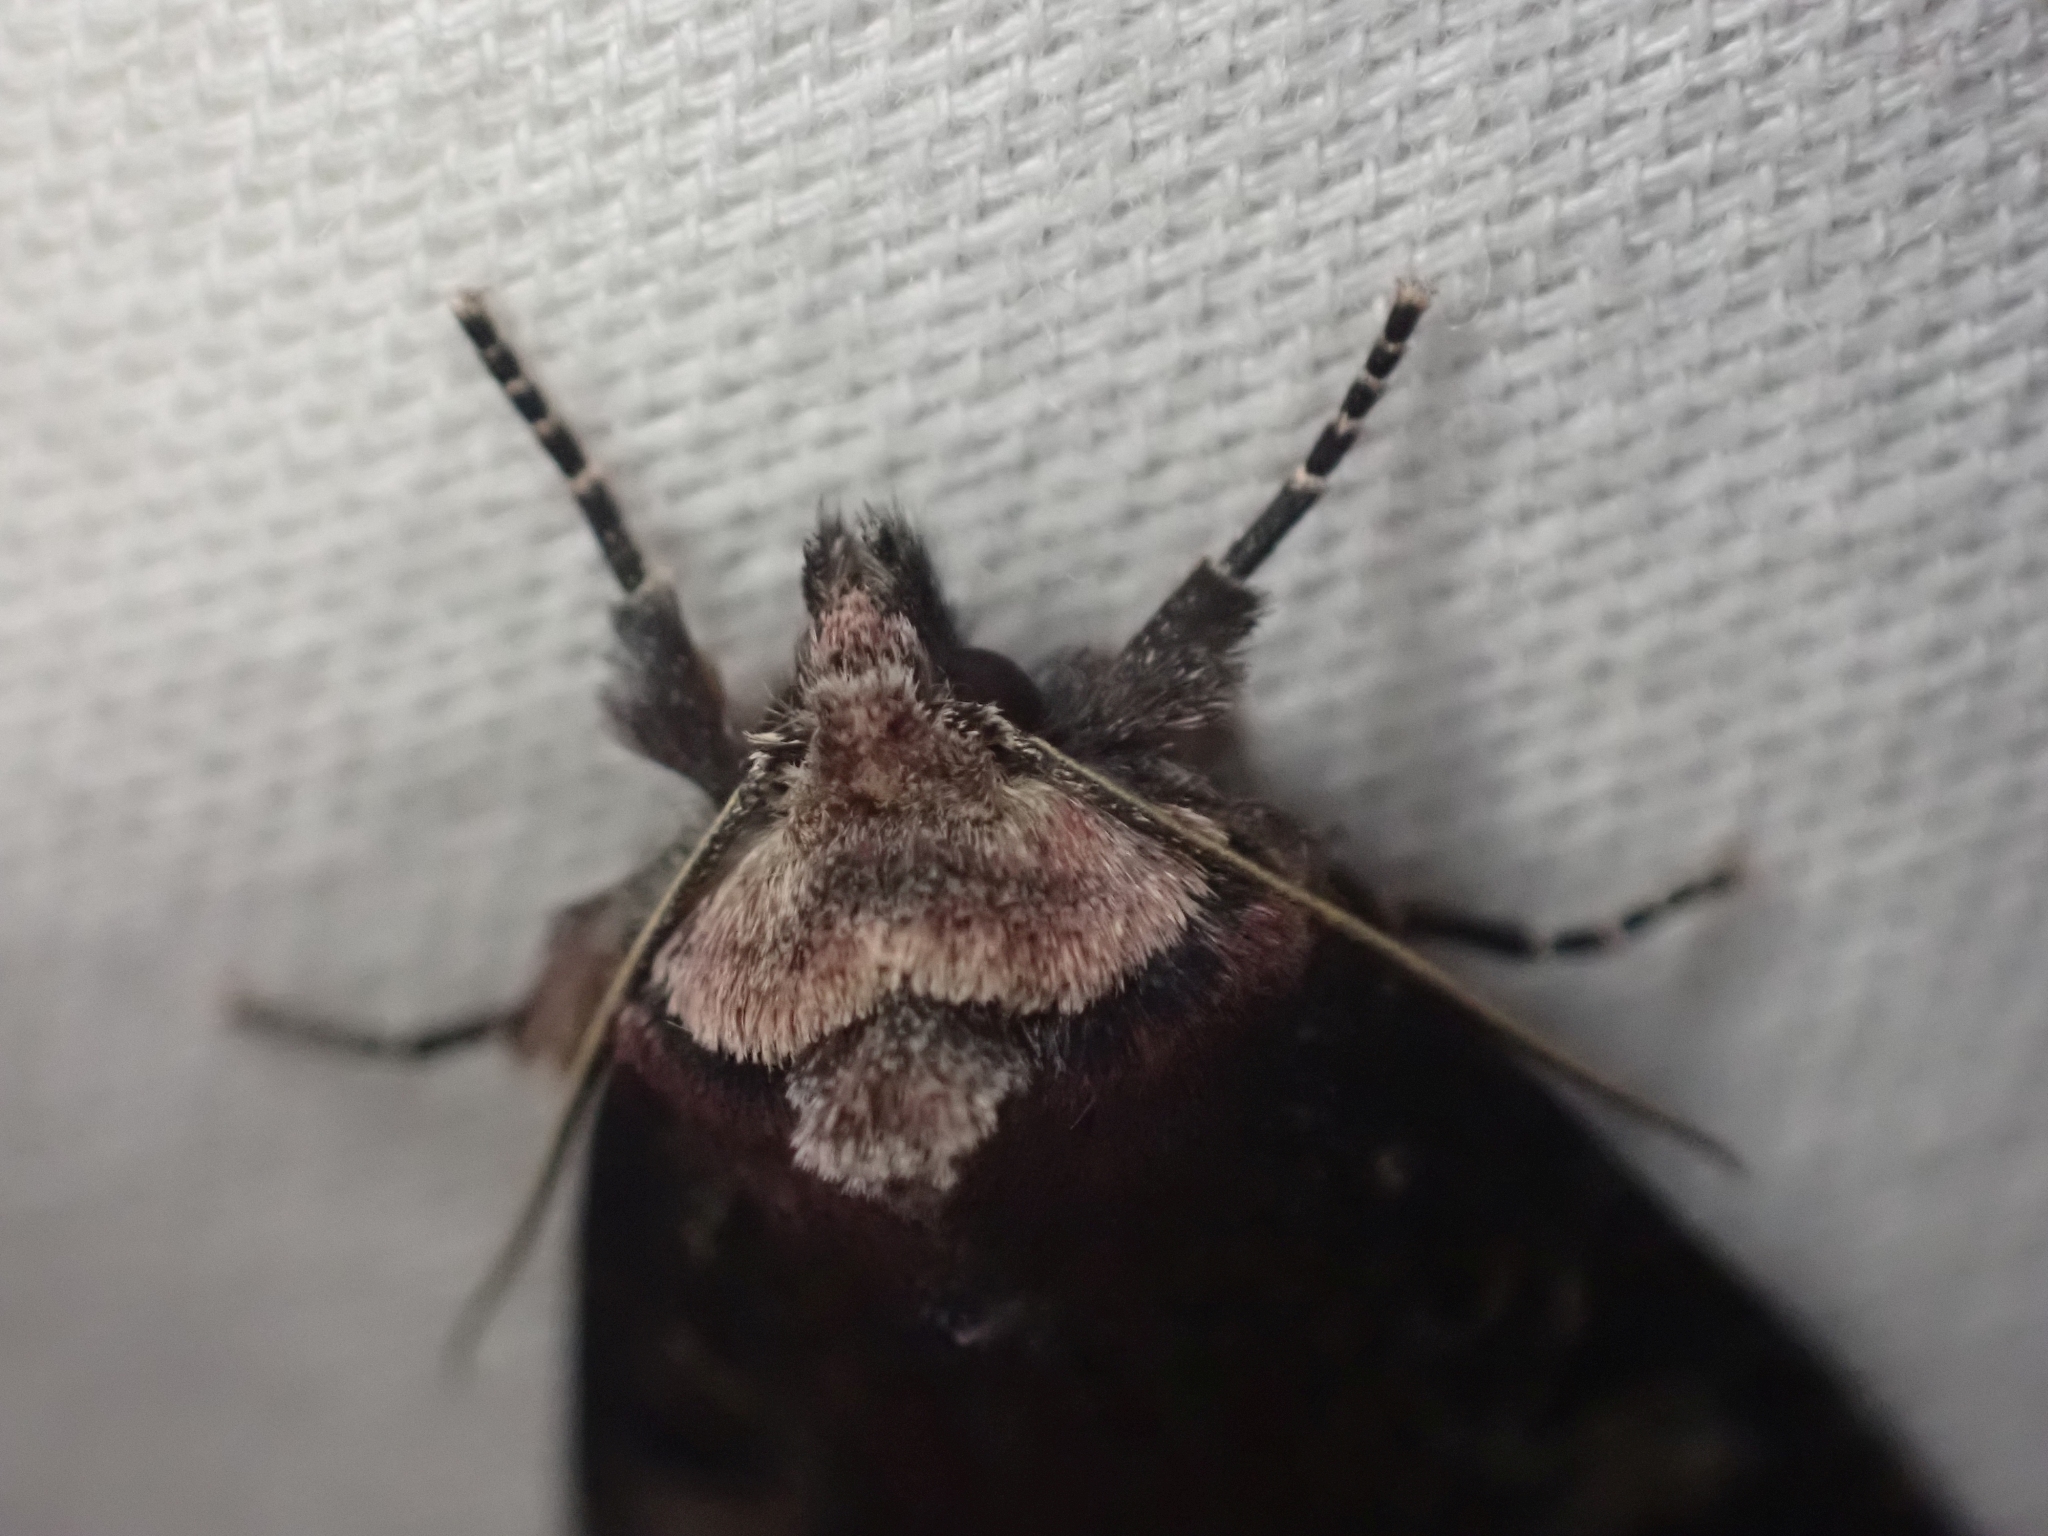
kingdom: Animalia
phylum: Arthropoda
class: Insecta
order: Lepidoptera
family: Noctuidae
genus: Hillia
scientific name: Hillia iris
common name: Iris rover moth
